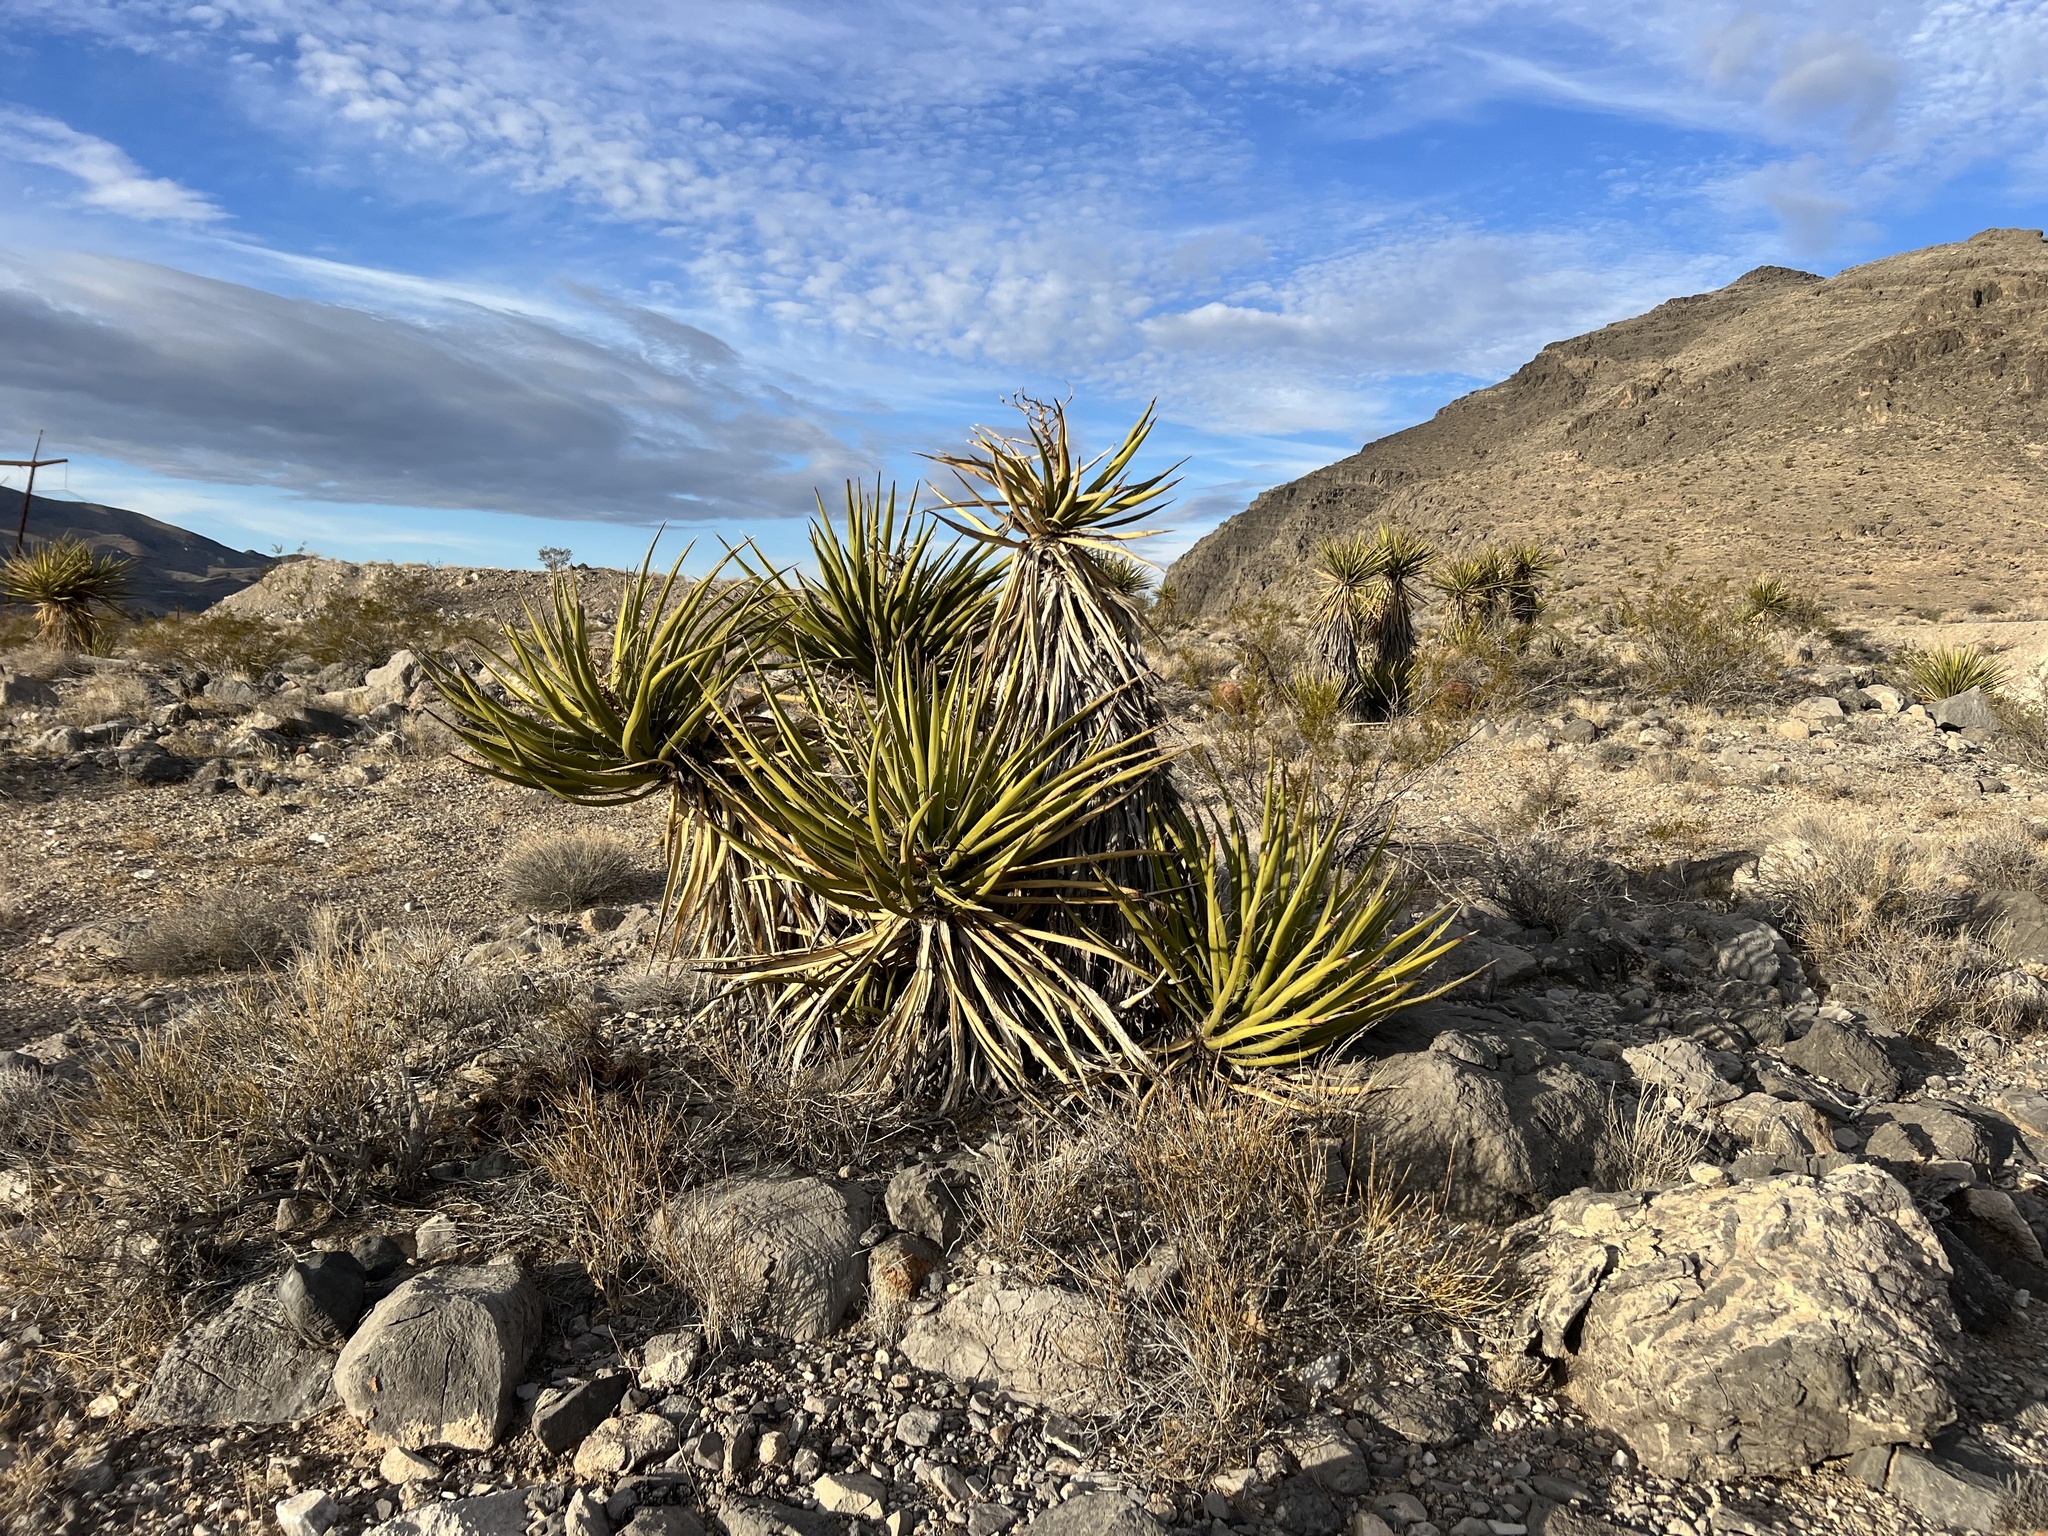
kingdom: Plantae
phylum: Tracheophyta
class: Liliopsida
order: Asparagales
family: Asparagaceae
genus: Yucca
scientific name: Yucca schidigera
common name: Mojave yucca
